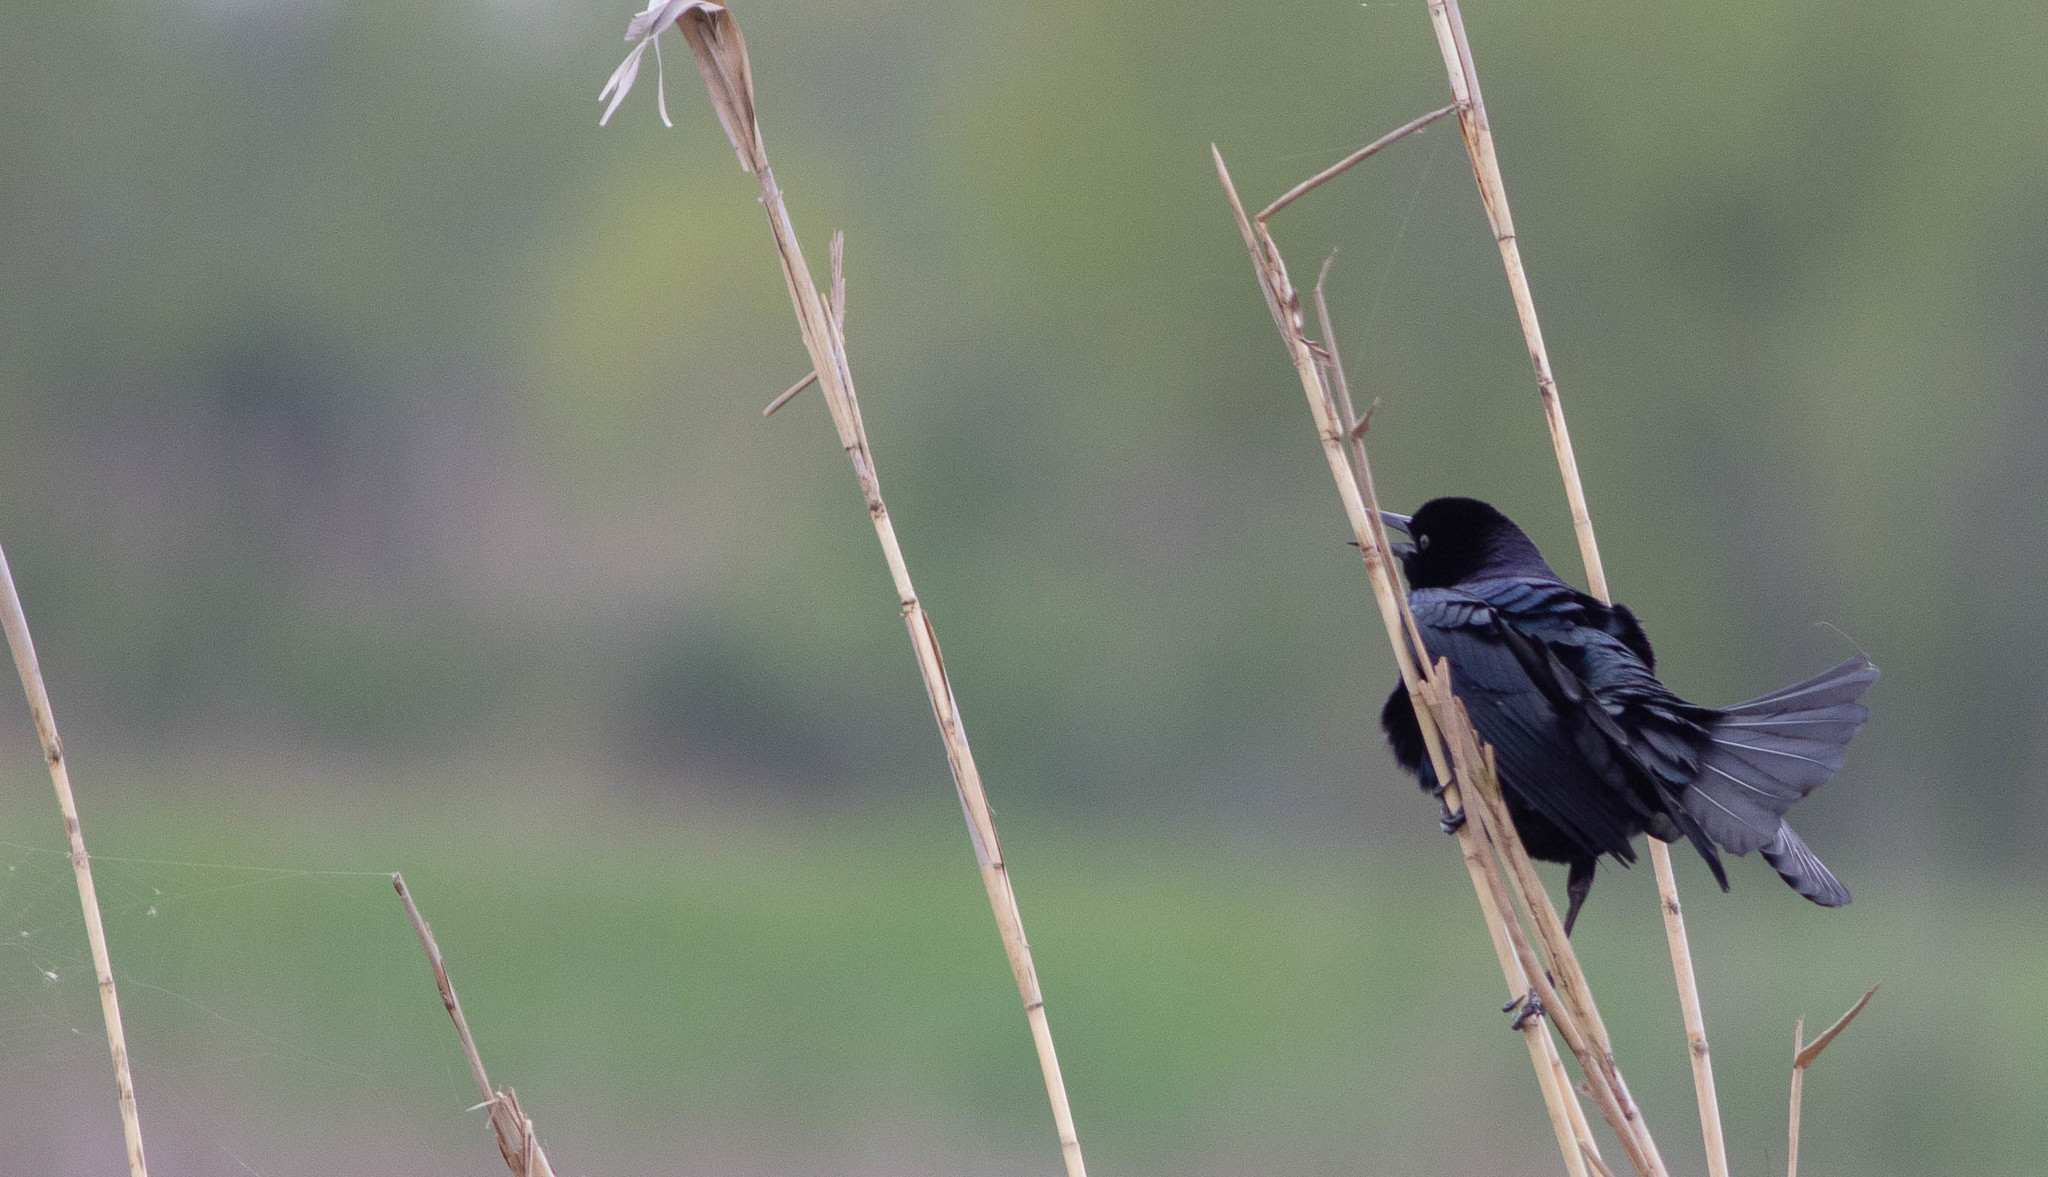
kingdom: Animalia
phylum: Chordata
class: Aves
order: Passeriformes
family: Icteridae
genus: Quiscalus
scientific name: Quiscalus major
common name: Boat-tailed grackle
